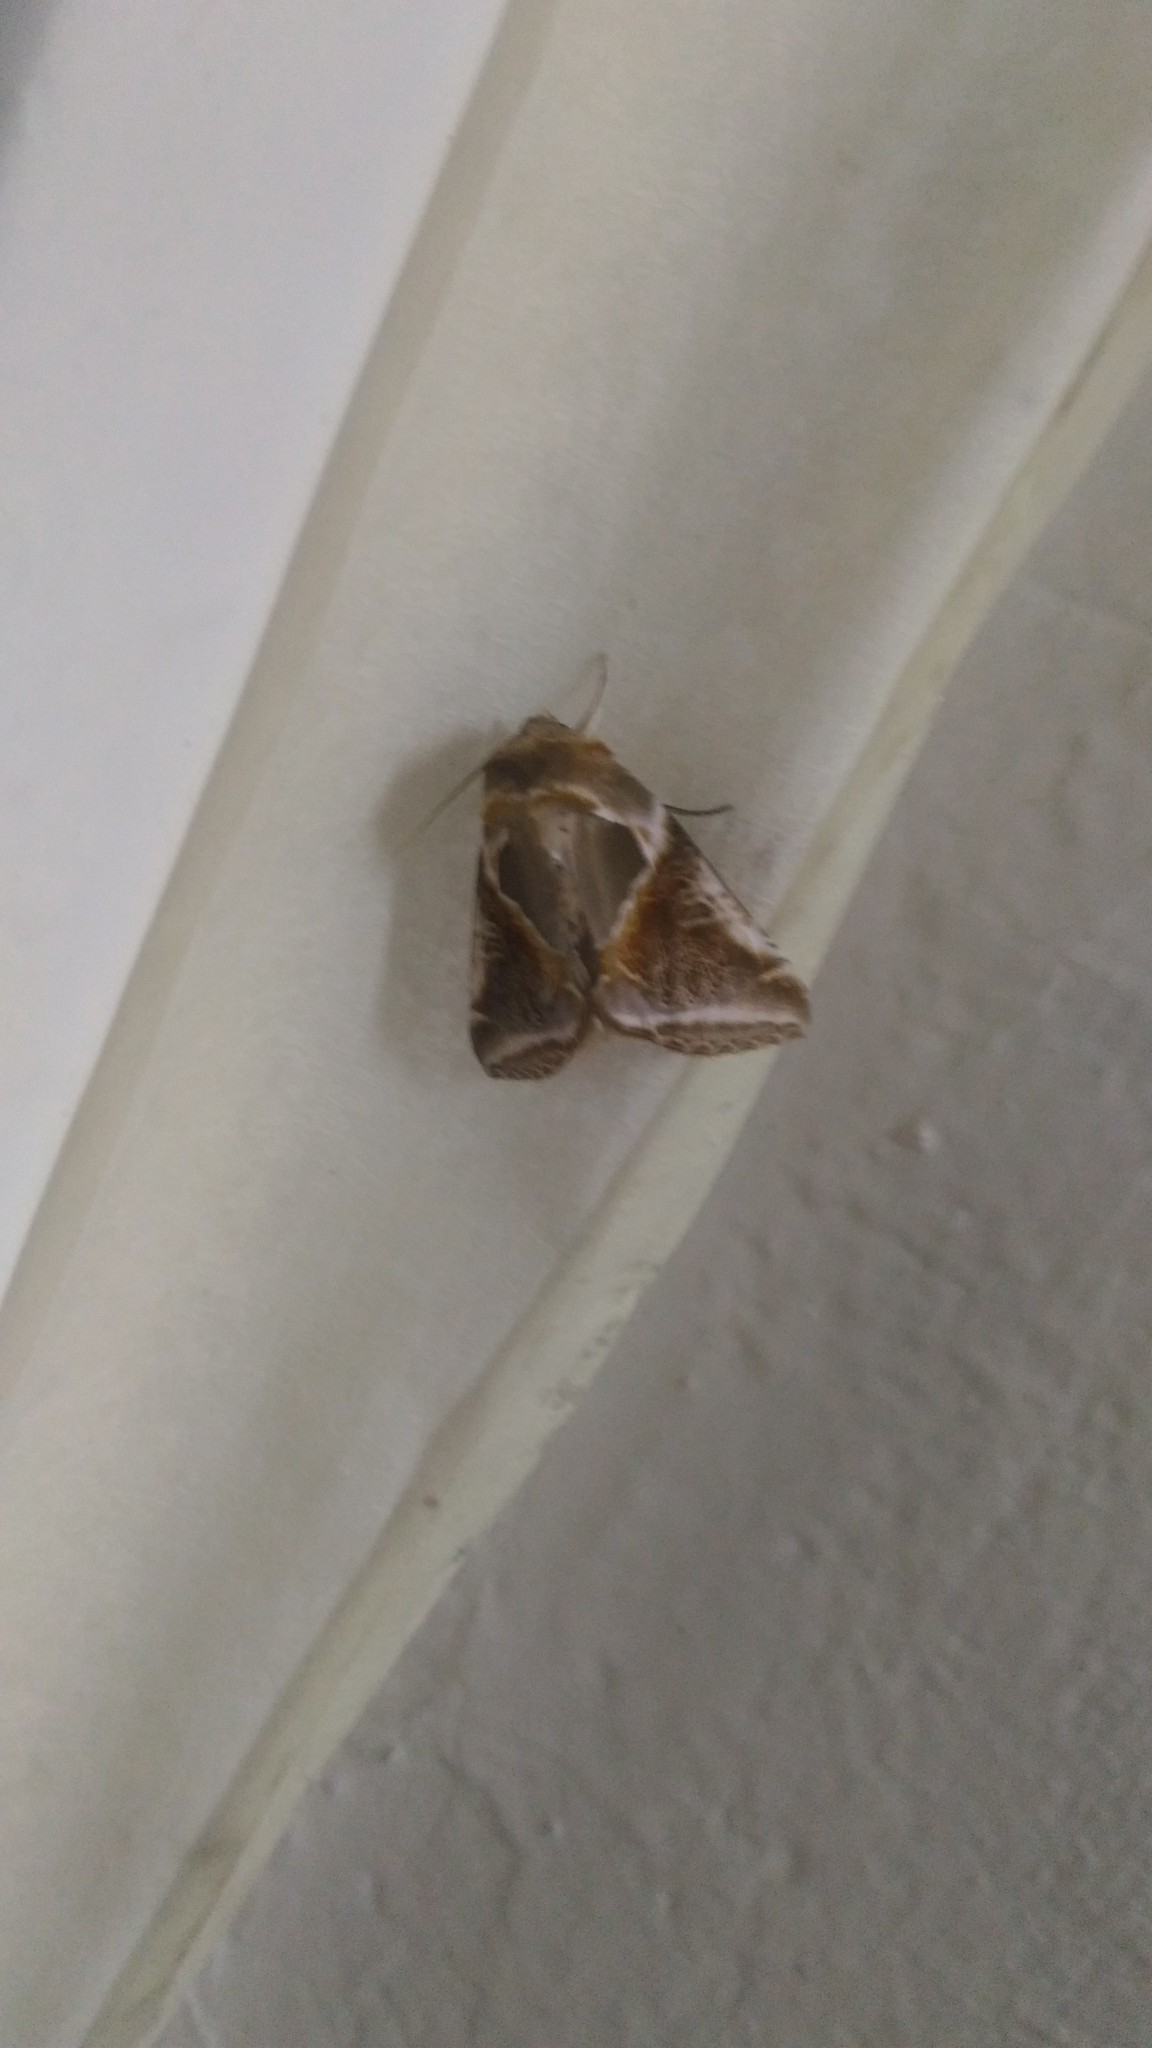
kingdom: Animalia
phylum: Arthropoda
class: Insecta
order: Lepidoptera
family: Drepanidae
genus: Habrosyne
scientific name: Habrosyne pyritoides
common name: Buff arches
